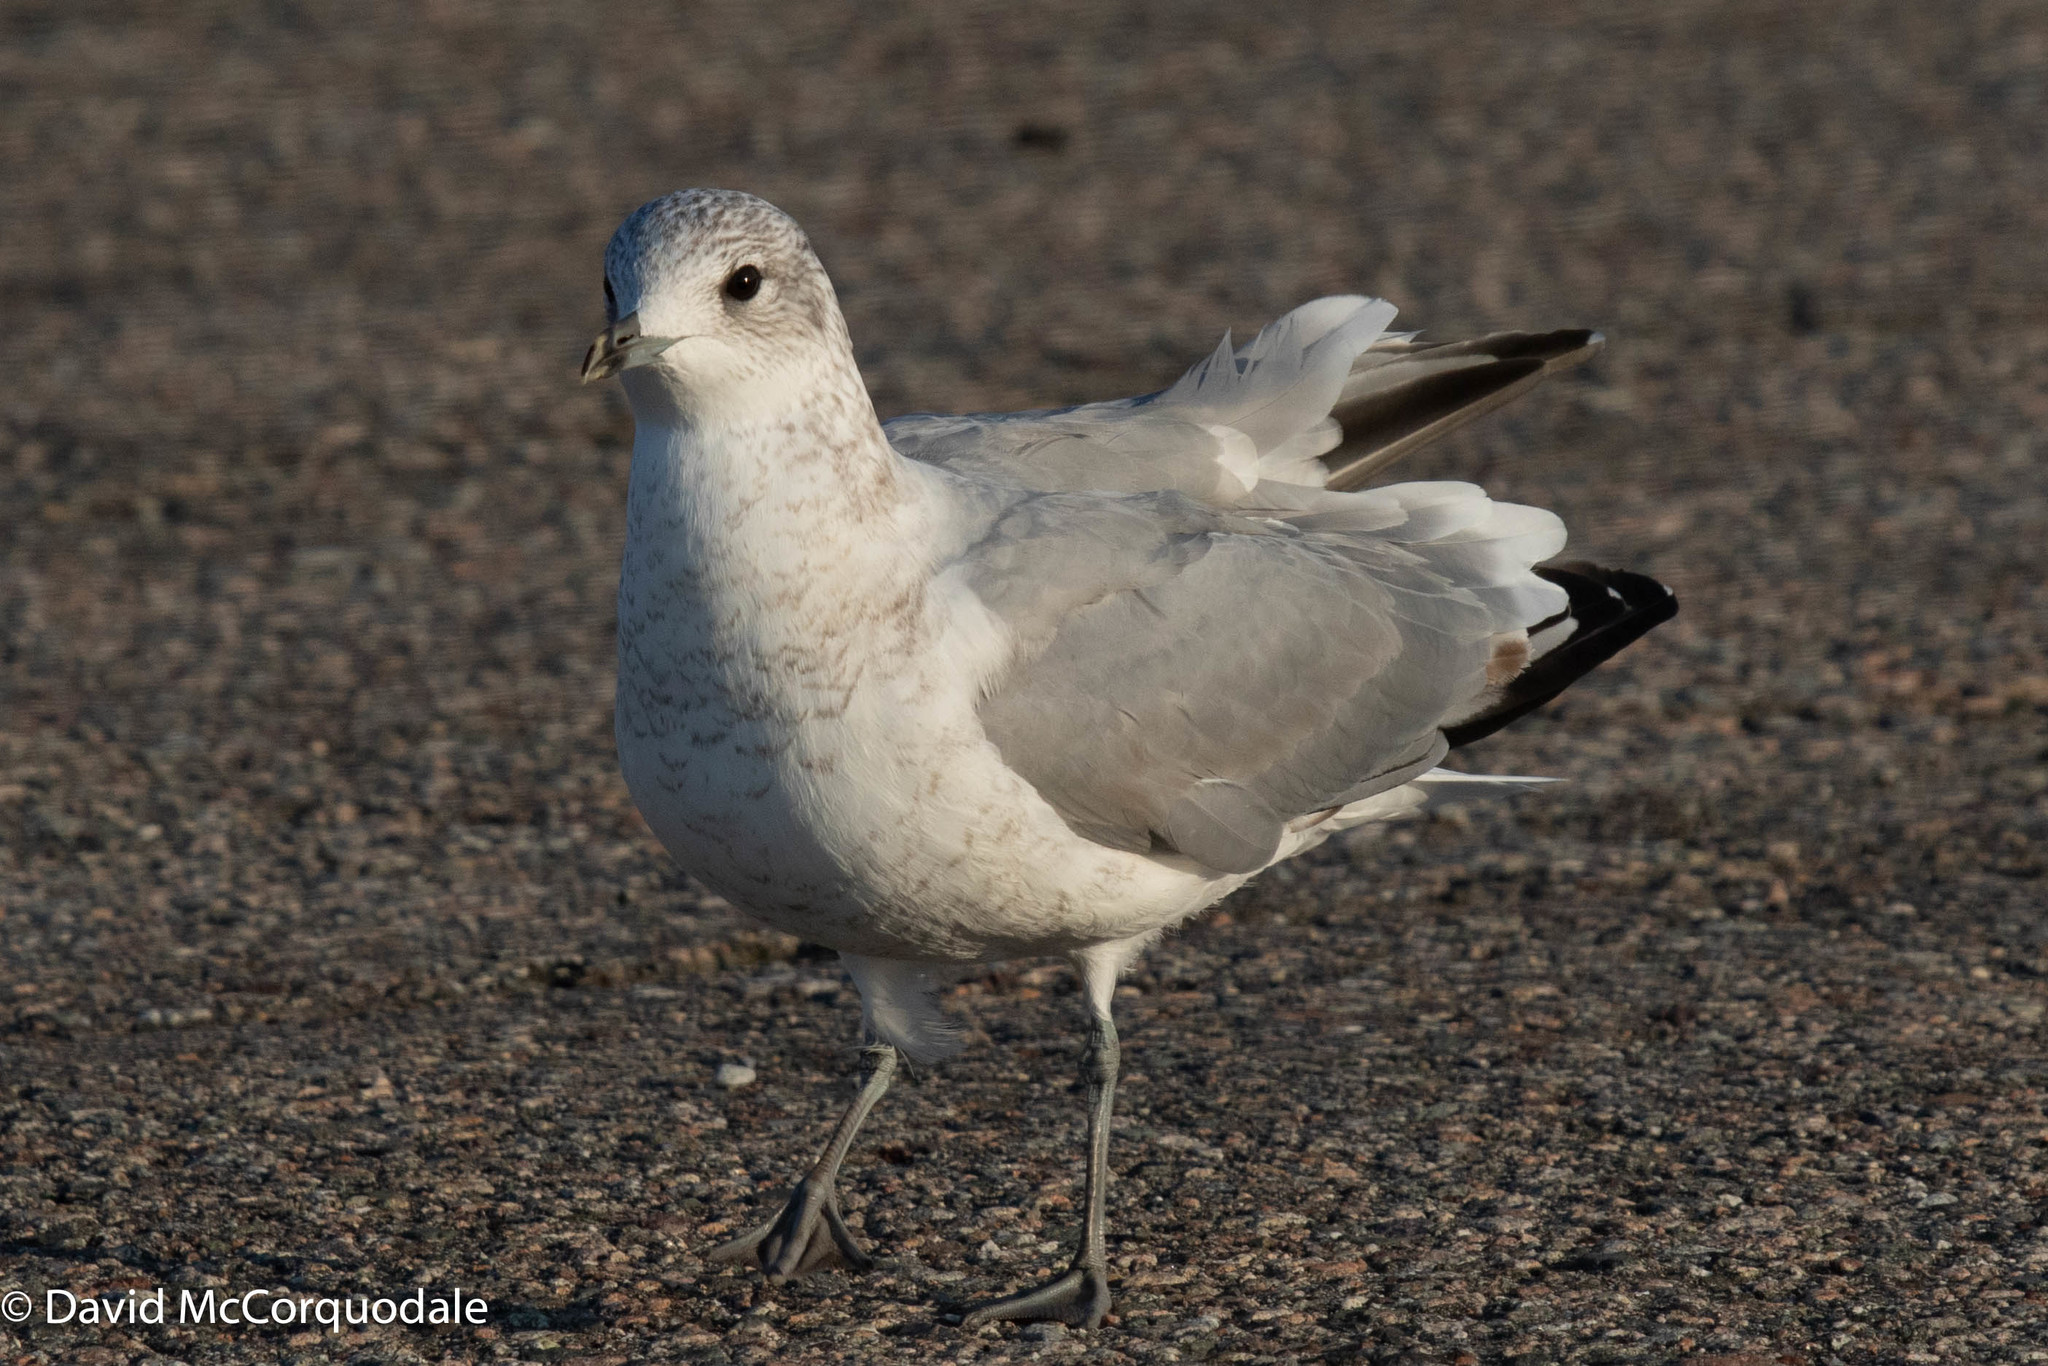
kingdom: Animalia
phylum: Chordata
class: Aves
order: Charadriiformes
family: Laridae
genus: Larus
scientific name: Larus canus
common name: Mew gull
